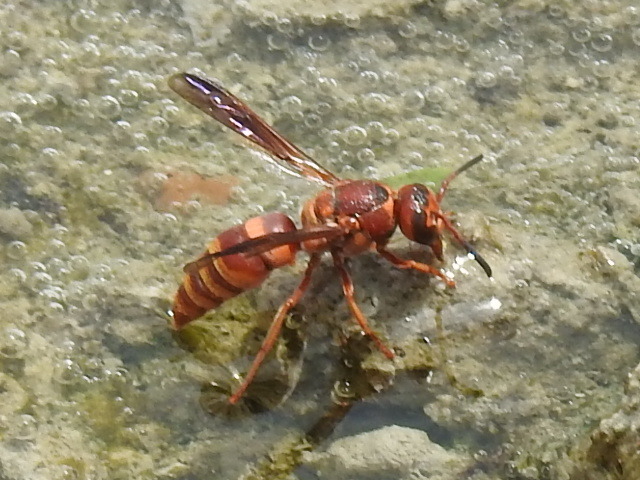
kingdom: Animalia
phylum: Arthropoda
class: Insecta
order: Hymenoptera
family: Eumenidae
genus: Euodynerus
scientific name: Euodynerus pratensis
